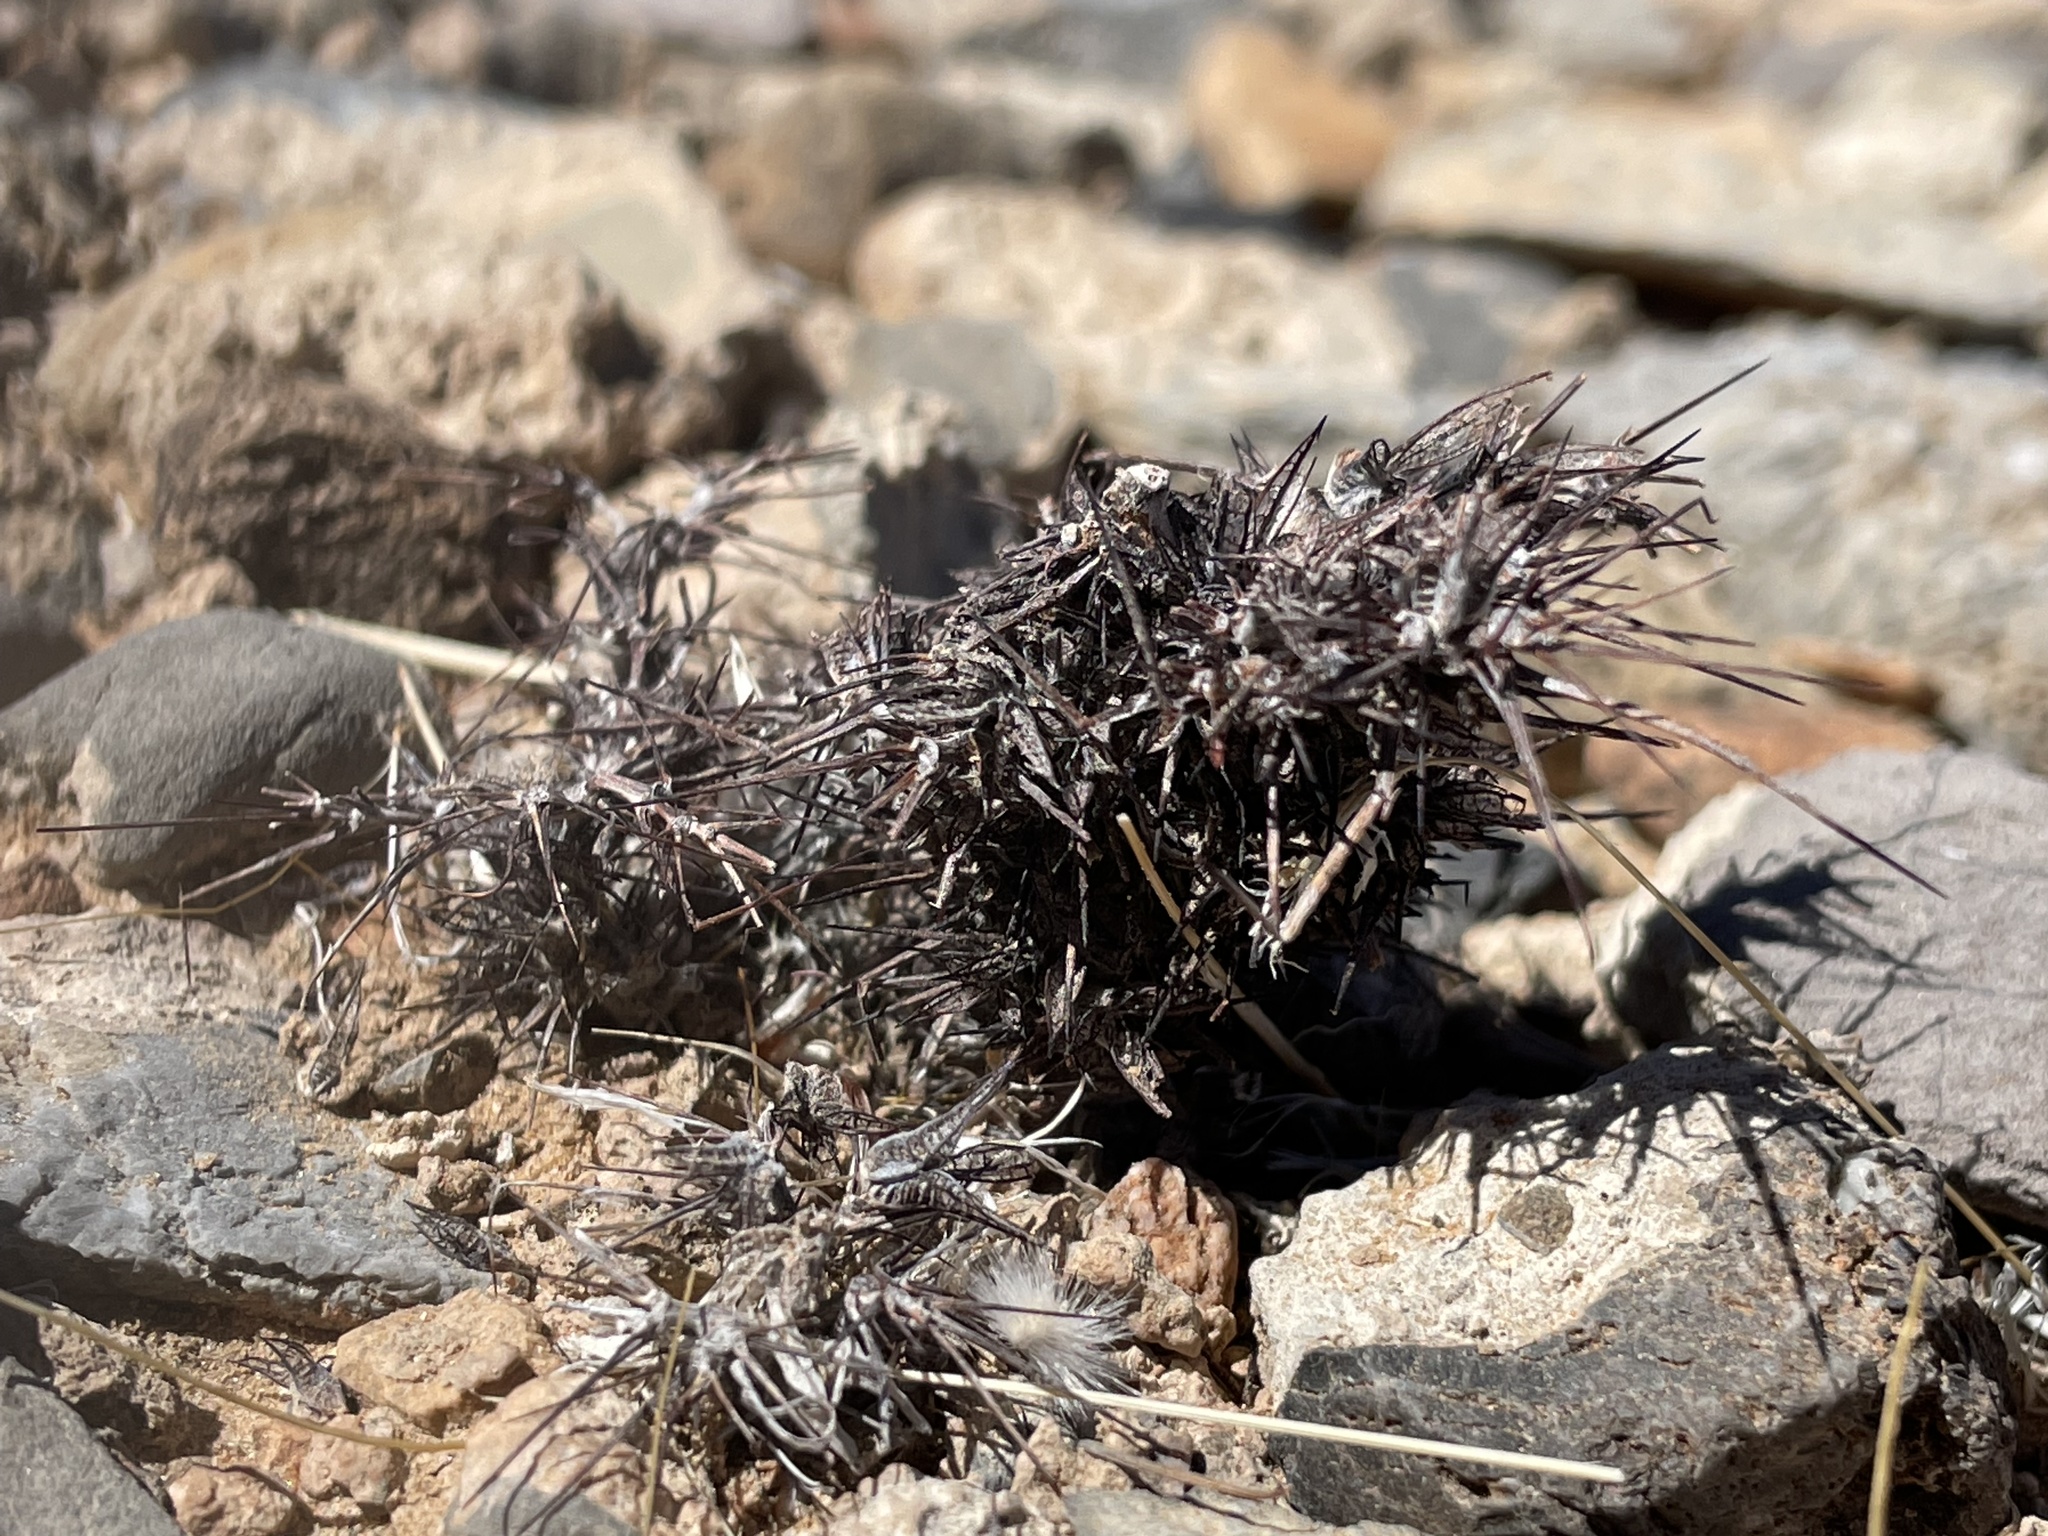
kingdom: Plantae
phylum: Tracheophyta
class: Magnoliopsida
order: Caryophyllales
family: Polygonaceae
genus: Chorizanthe
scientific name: Chorizanthe rigida
